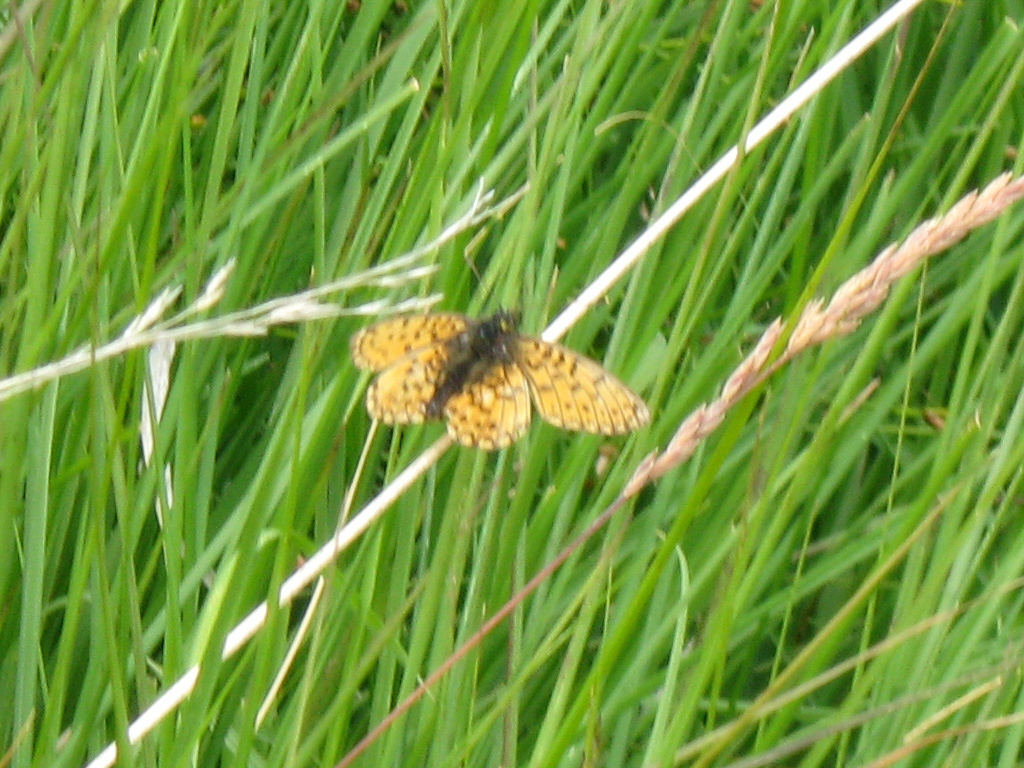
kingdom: Animalia
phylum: Arthropoda
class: Insecta
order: Lepidoptera
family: Nymphalidae
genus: Boloria
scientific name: Boloria selene
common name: Small pearl-bordered fritillary
